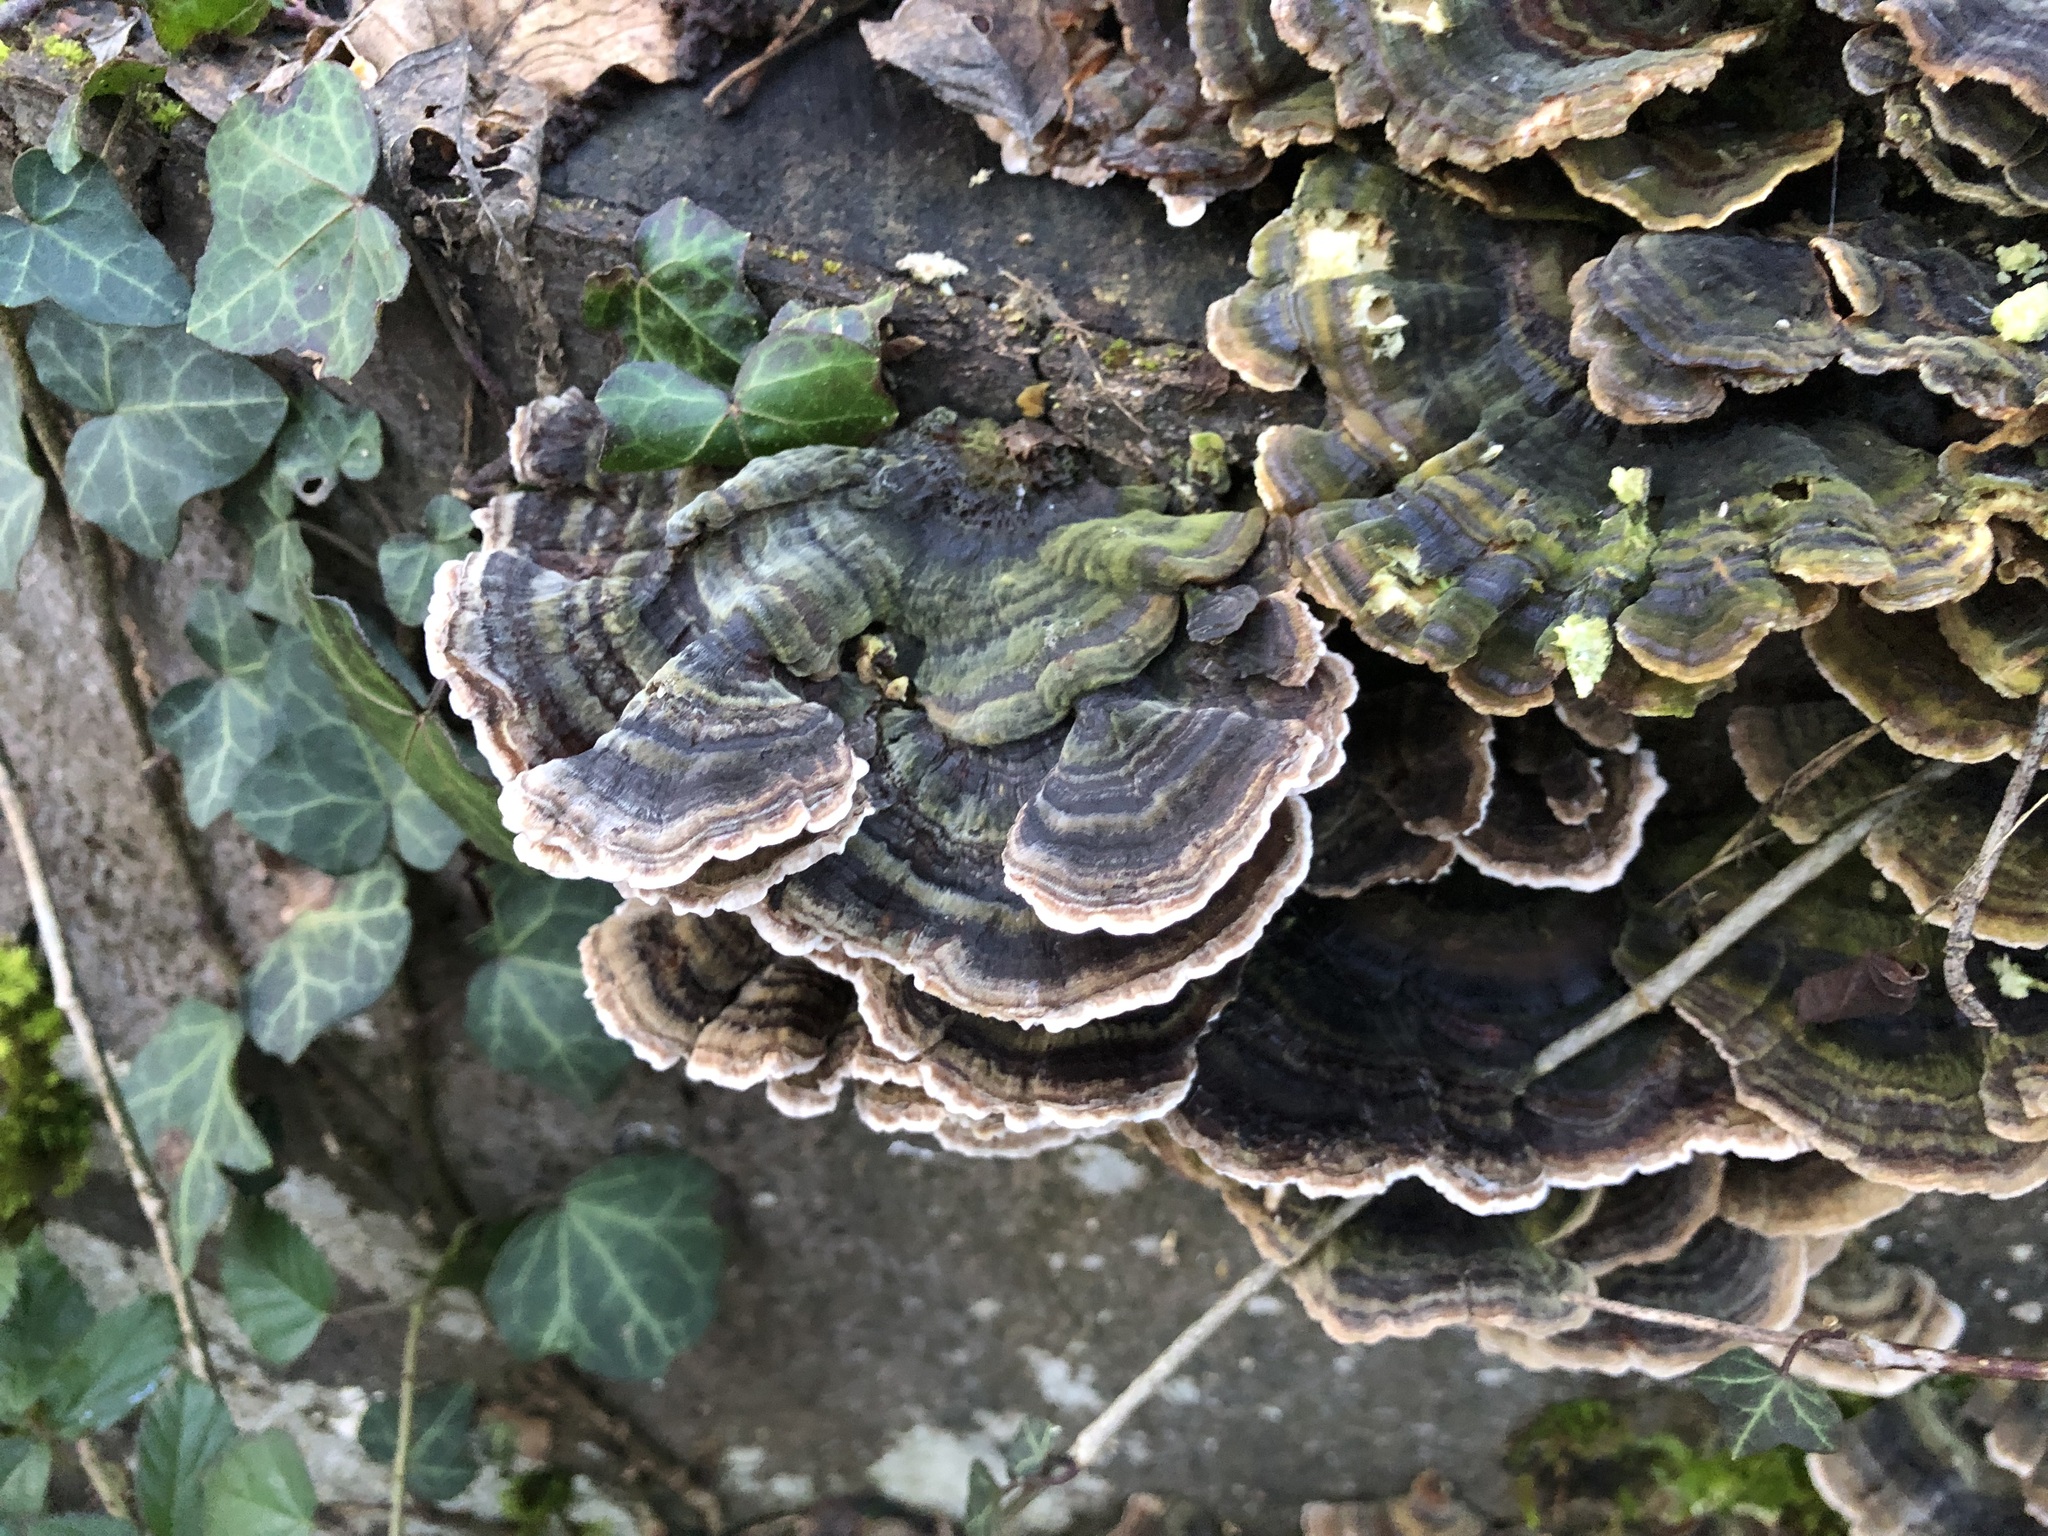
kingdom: Fungi
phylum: Basidiomycota
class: Agaricomycetes
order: Polyporales
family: Polyporaceae
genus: Trametes
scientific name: Trametes versicolor
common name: Turkeytail
